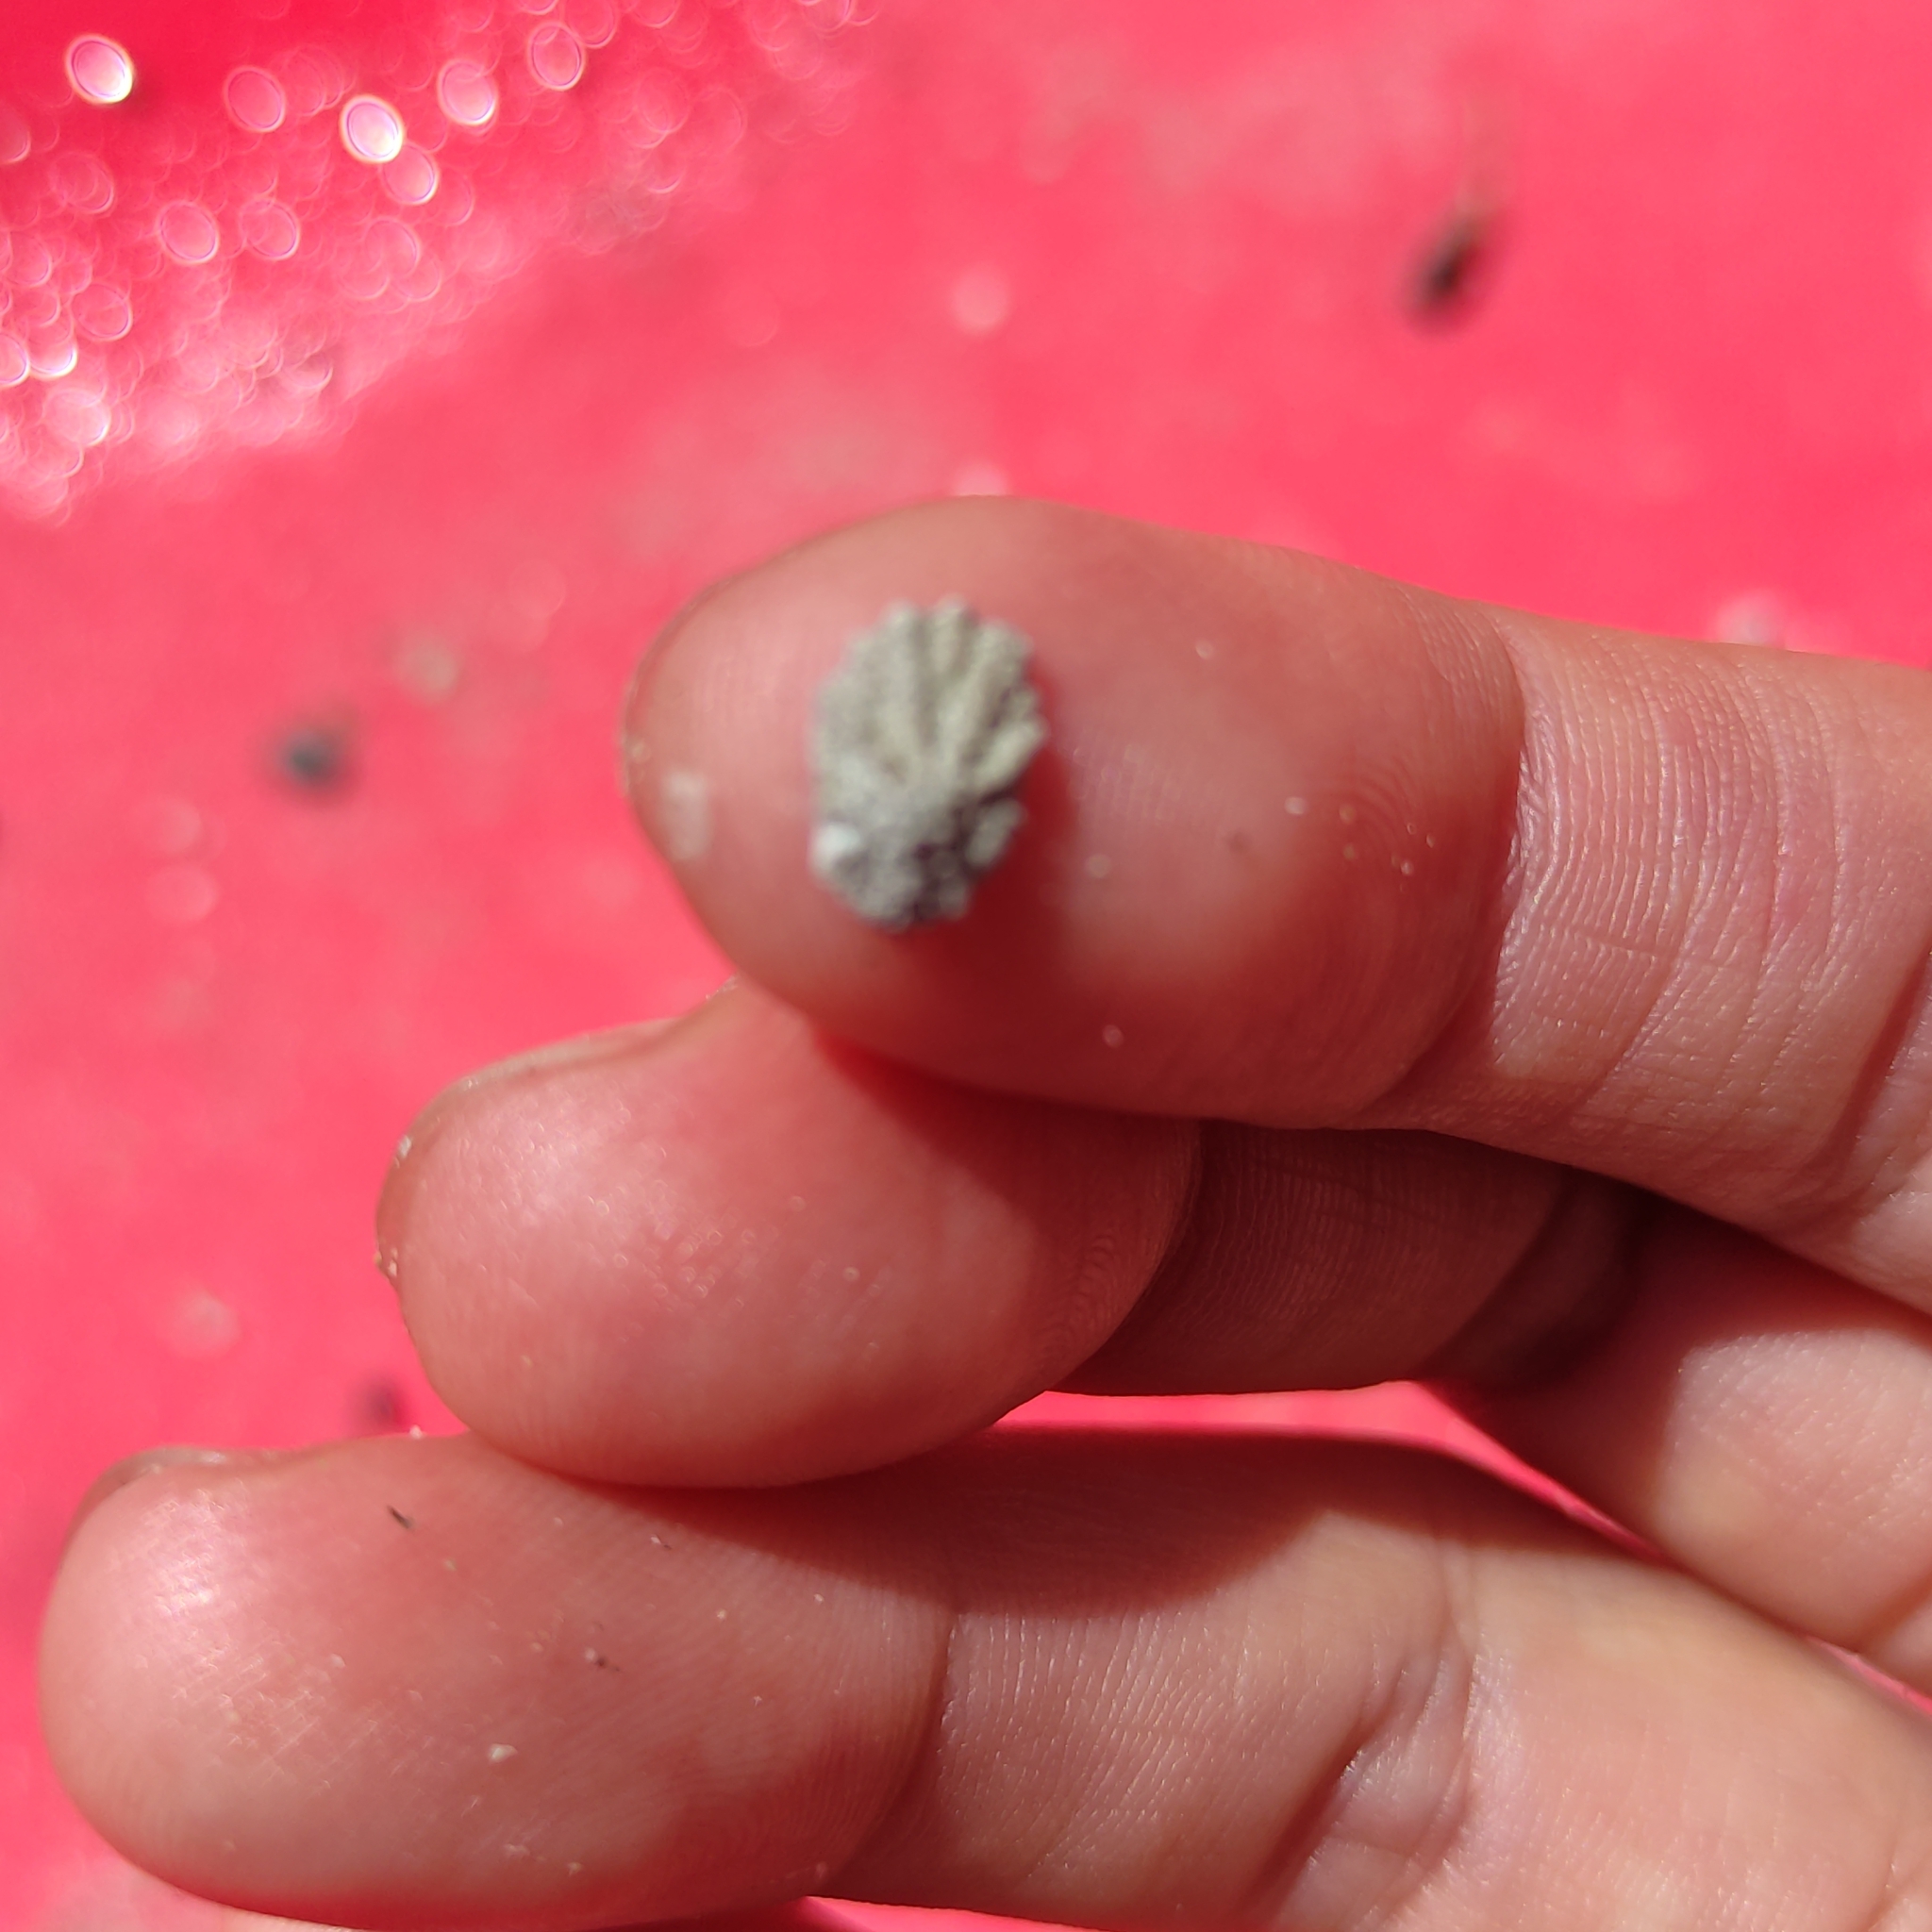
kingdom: Animalia
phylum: Mollusca
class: Gastropoda
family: Lottiidae
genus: Patelloida
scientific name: Patelloida corticata
